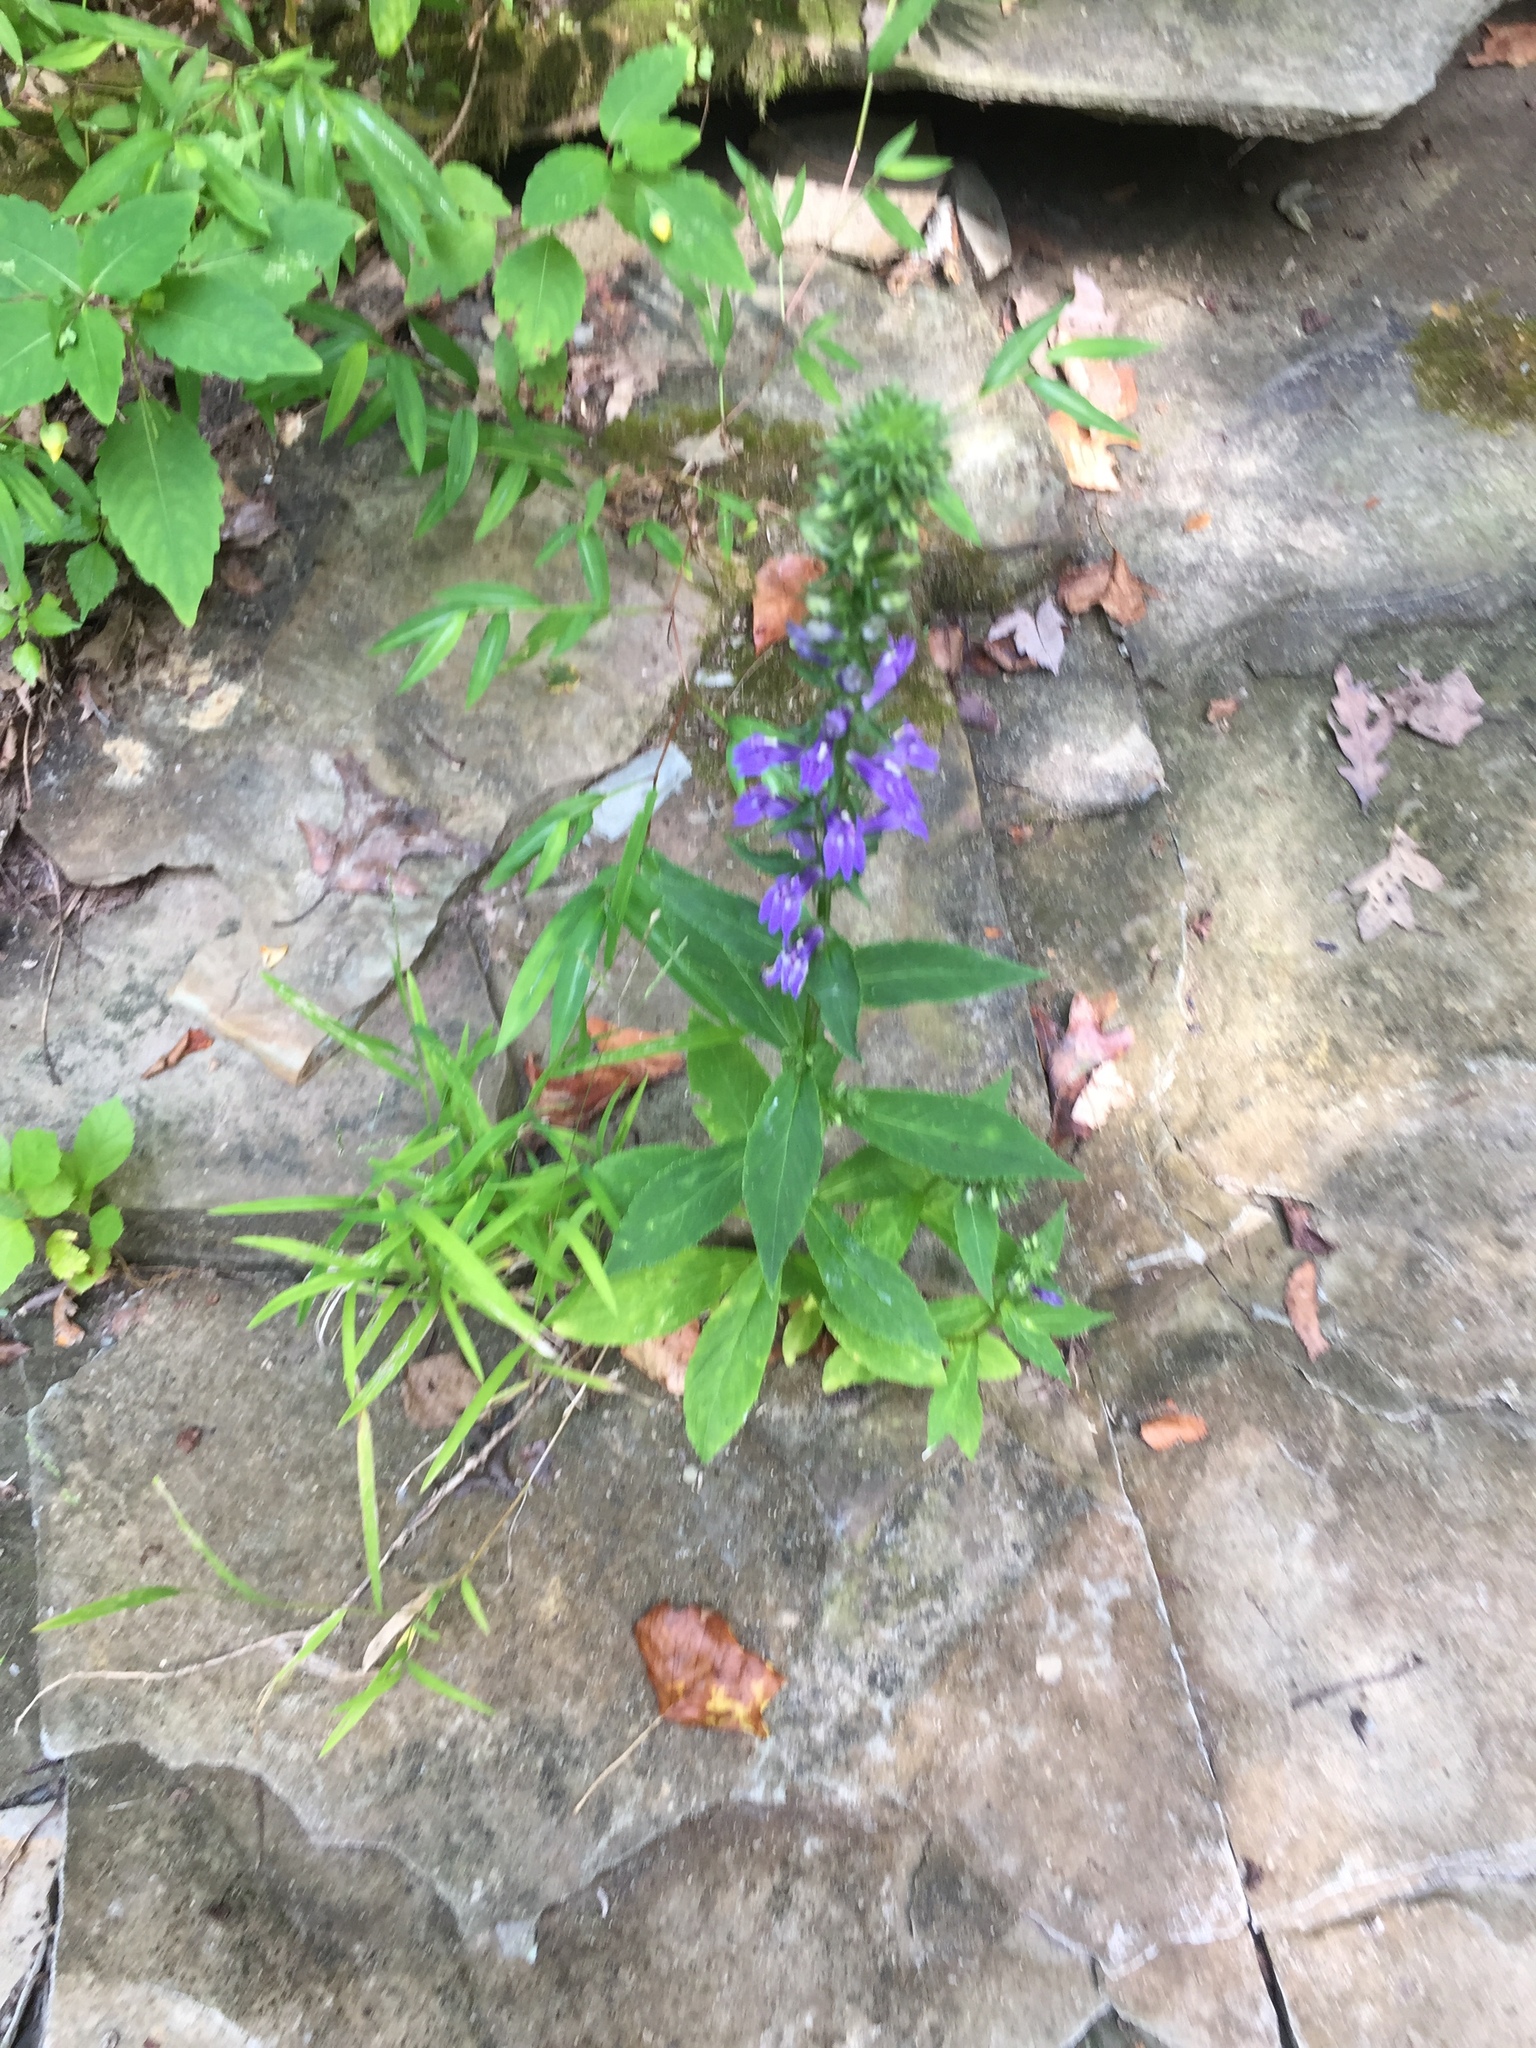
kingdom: Plantae
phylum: Tracheophyta
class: Magnoliopsida
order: Asterales
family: Campanulaceae
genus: Lobelia
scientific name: Lobelia siphilitica
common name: Great lobelia
